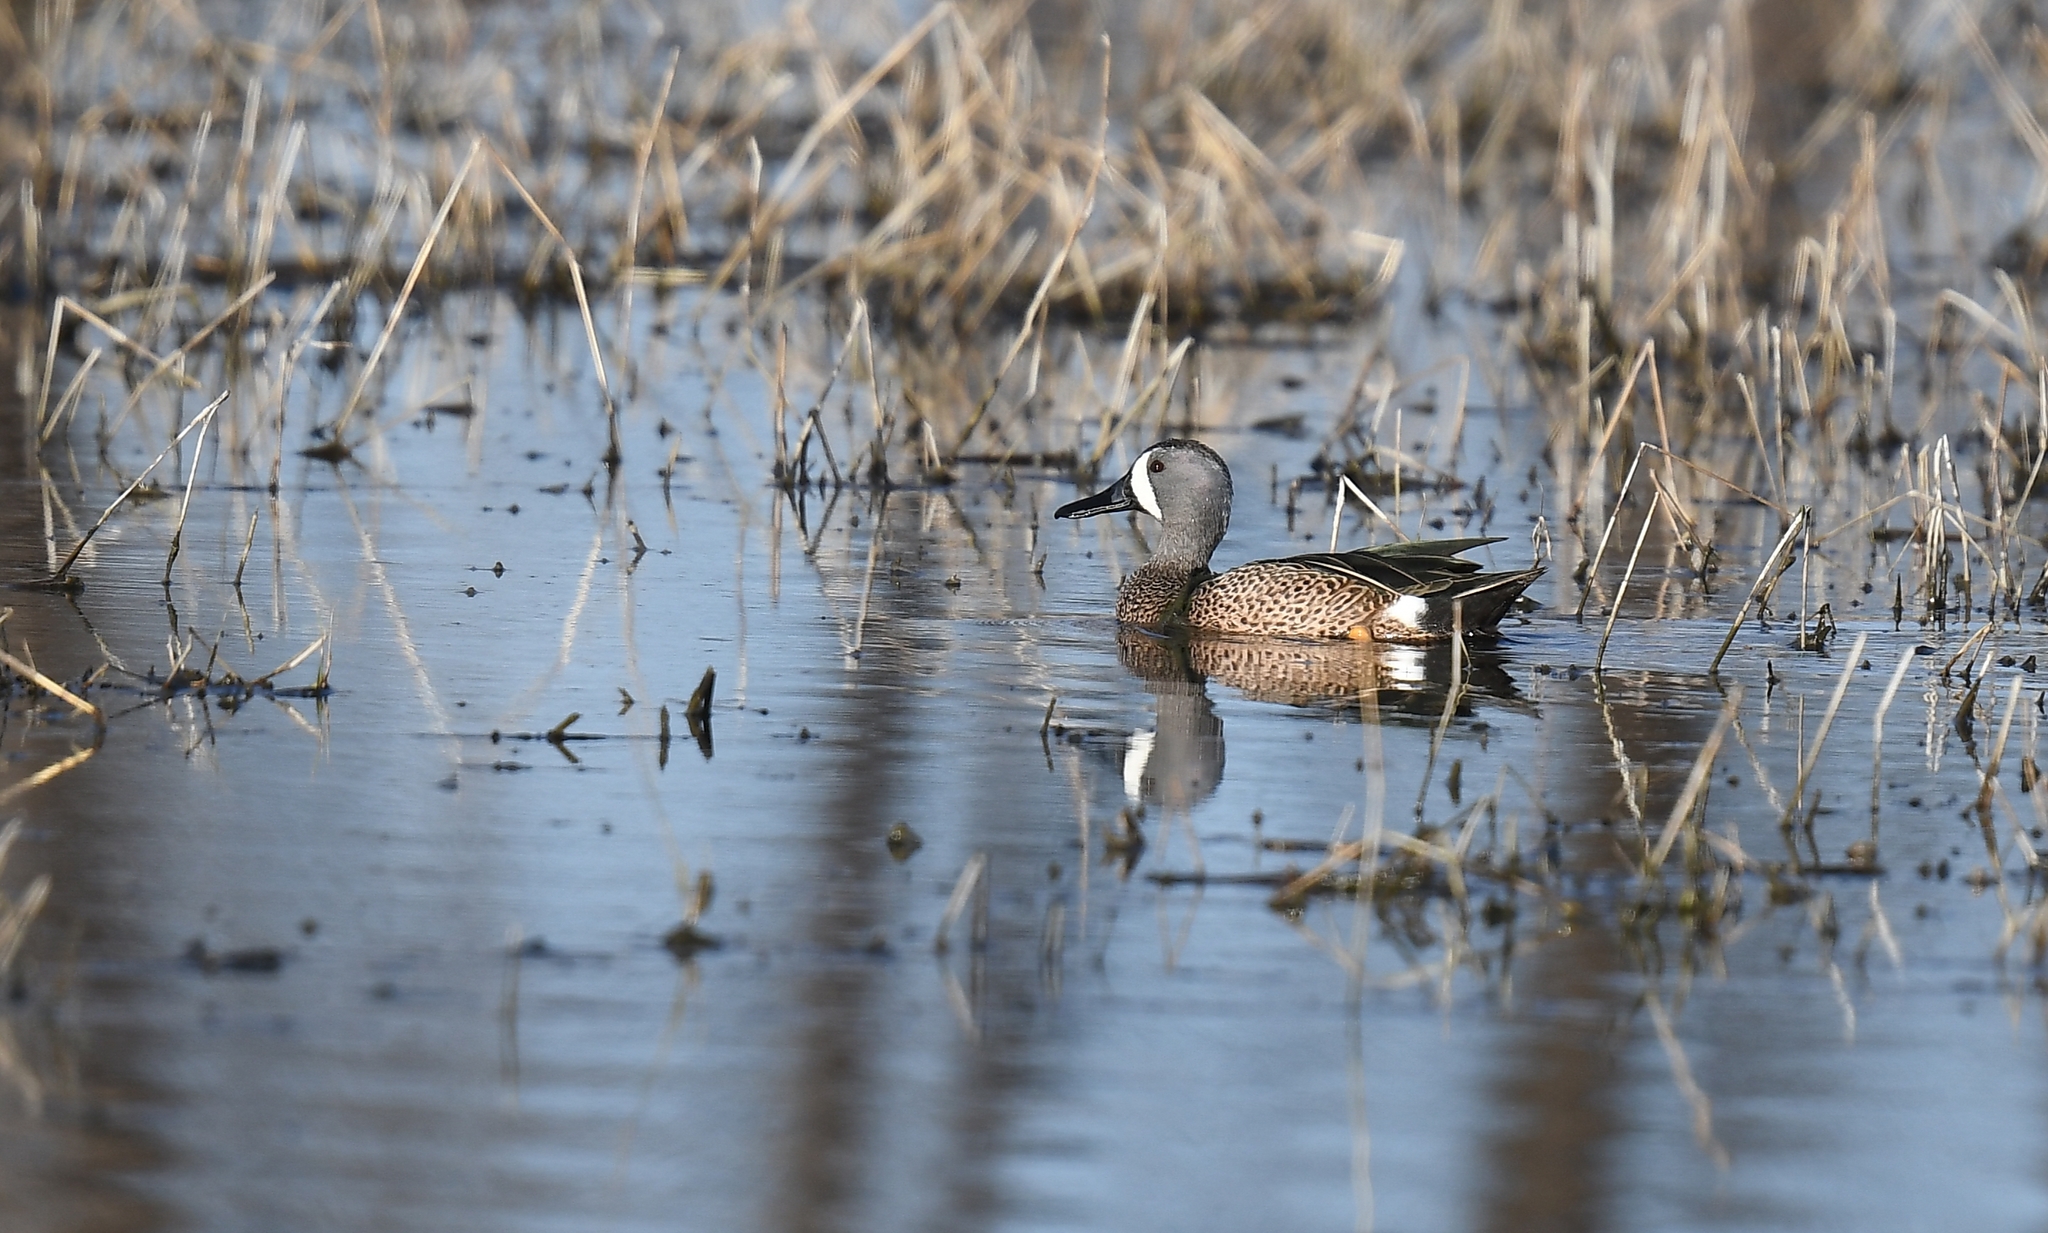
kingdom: Animalia
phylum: Chordata
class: Aves
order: Anseriformes
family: Anatidae
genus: Spatula
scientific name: Spatula discors
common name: Blue-winged teal
